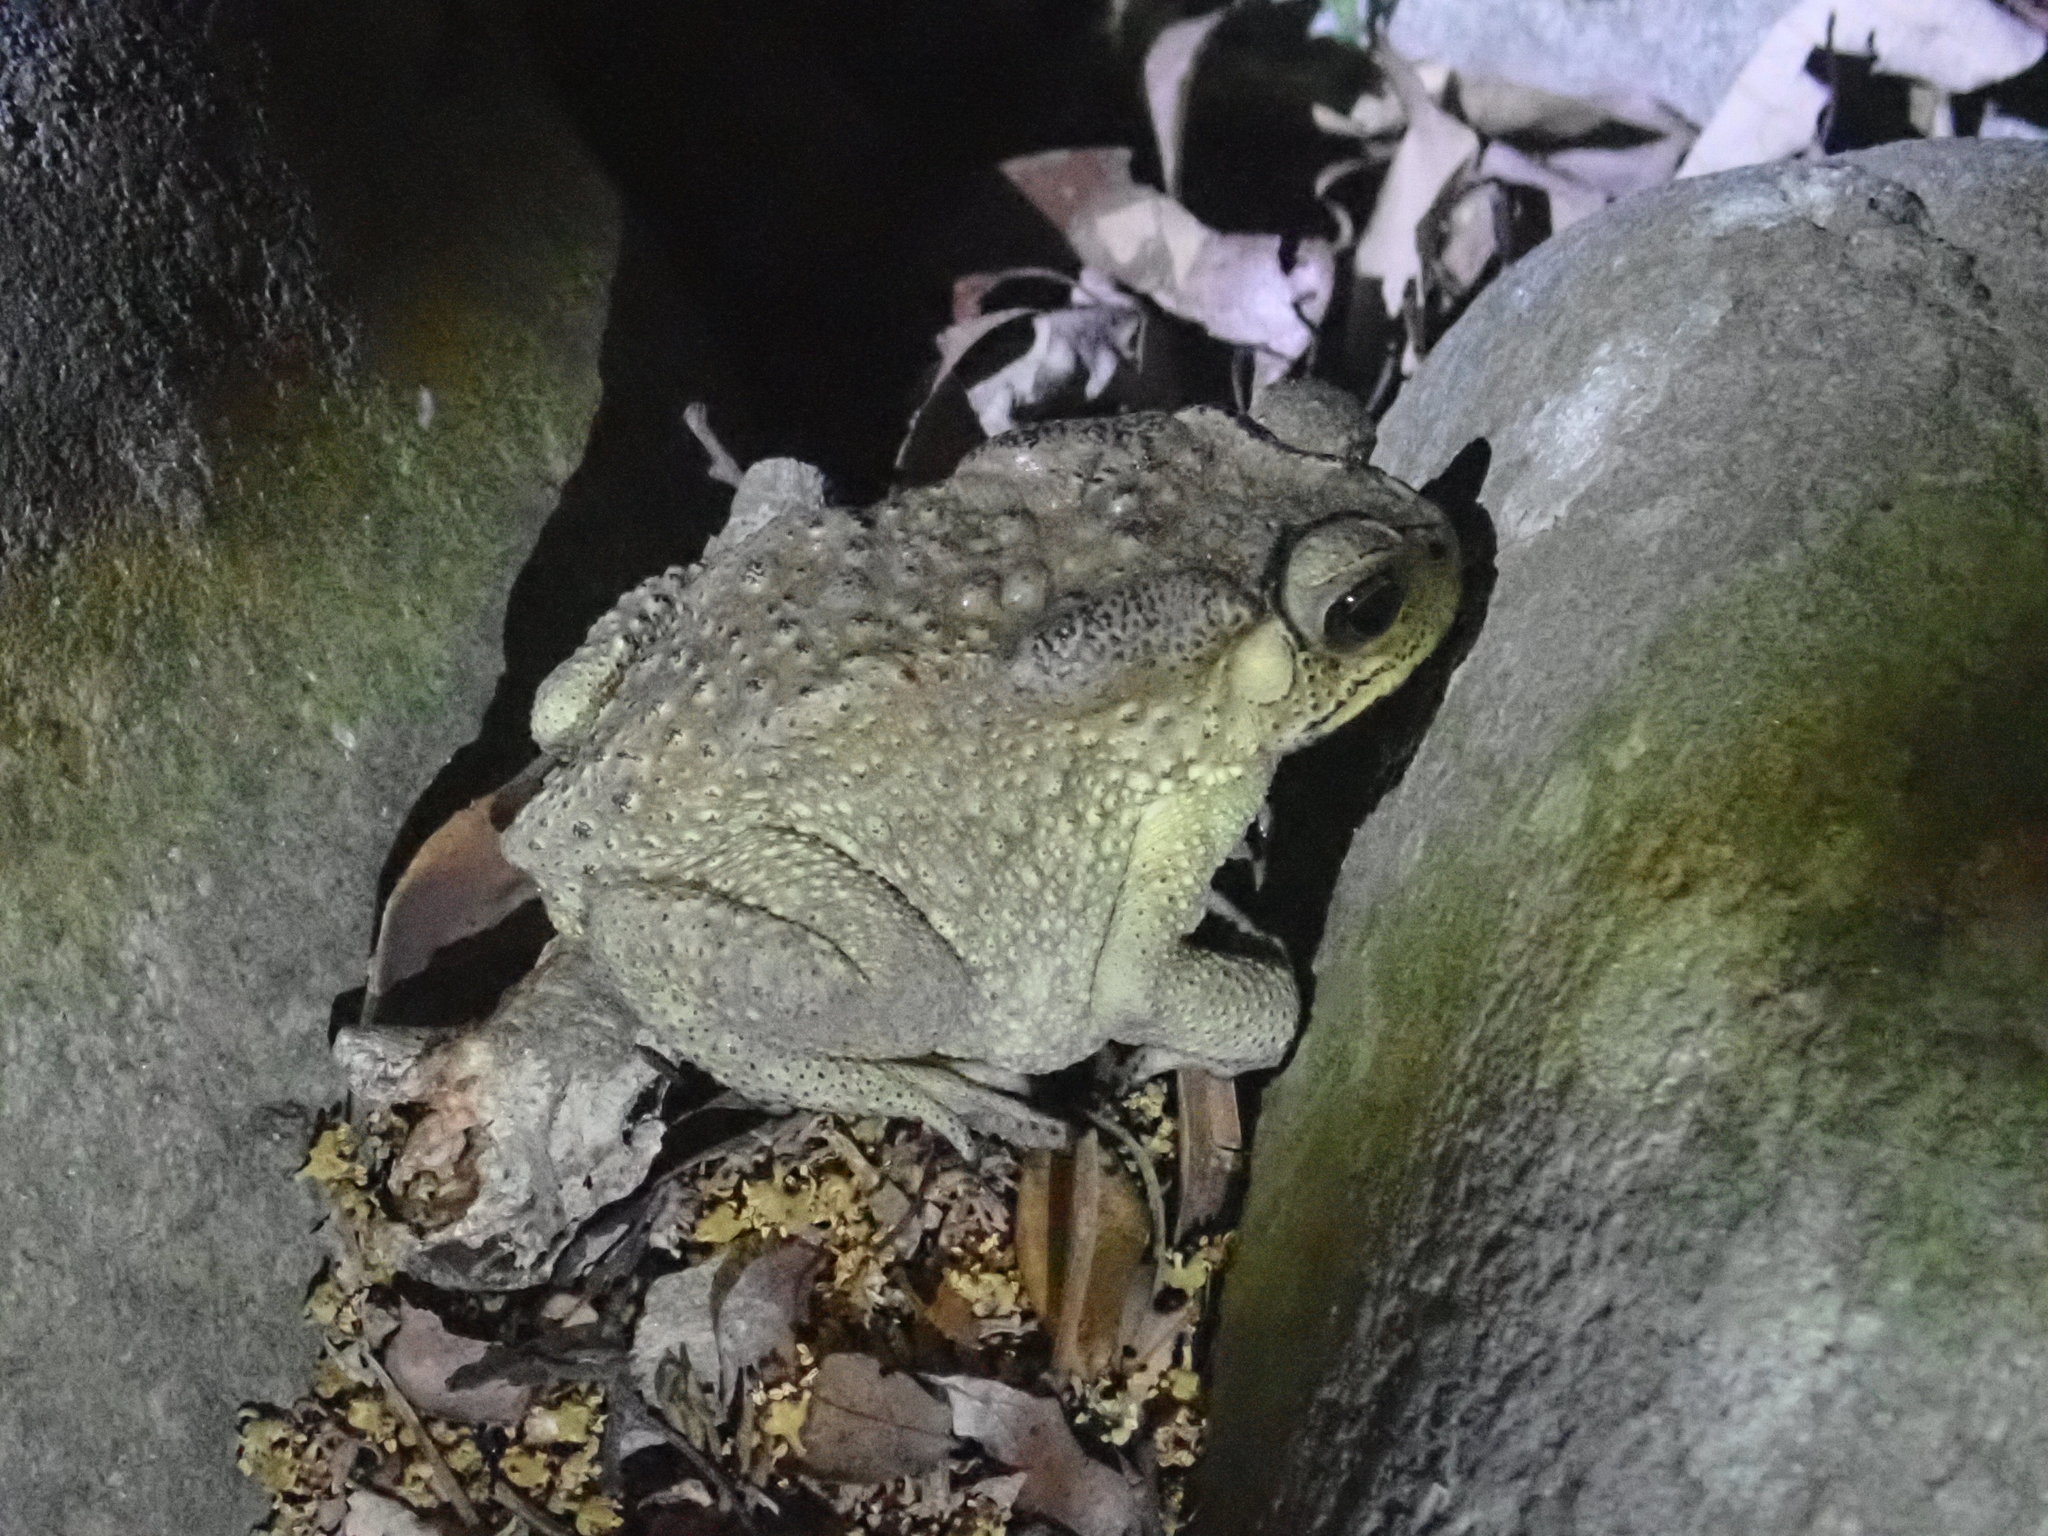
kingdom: Animalia
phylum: Chordata
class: Amphibia
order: Anura
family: Bufonidae
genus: Duttaphrynus
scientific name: Duttaphrynus melanostictus
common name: Common sunda toad
